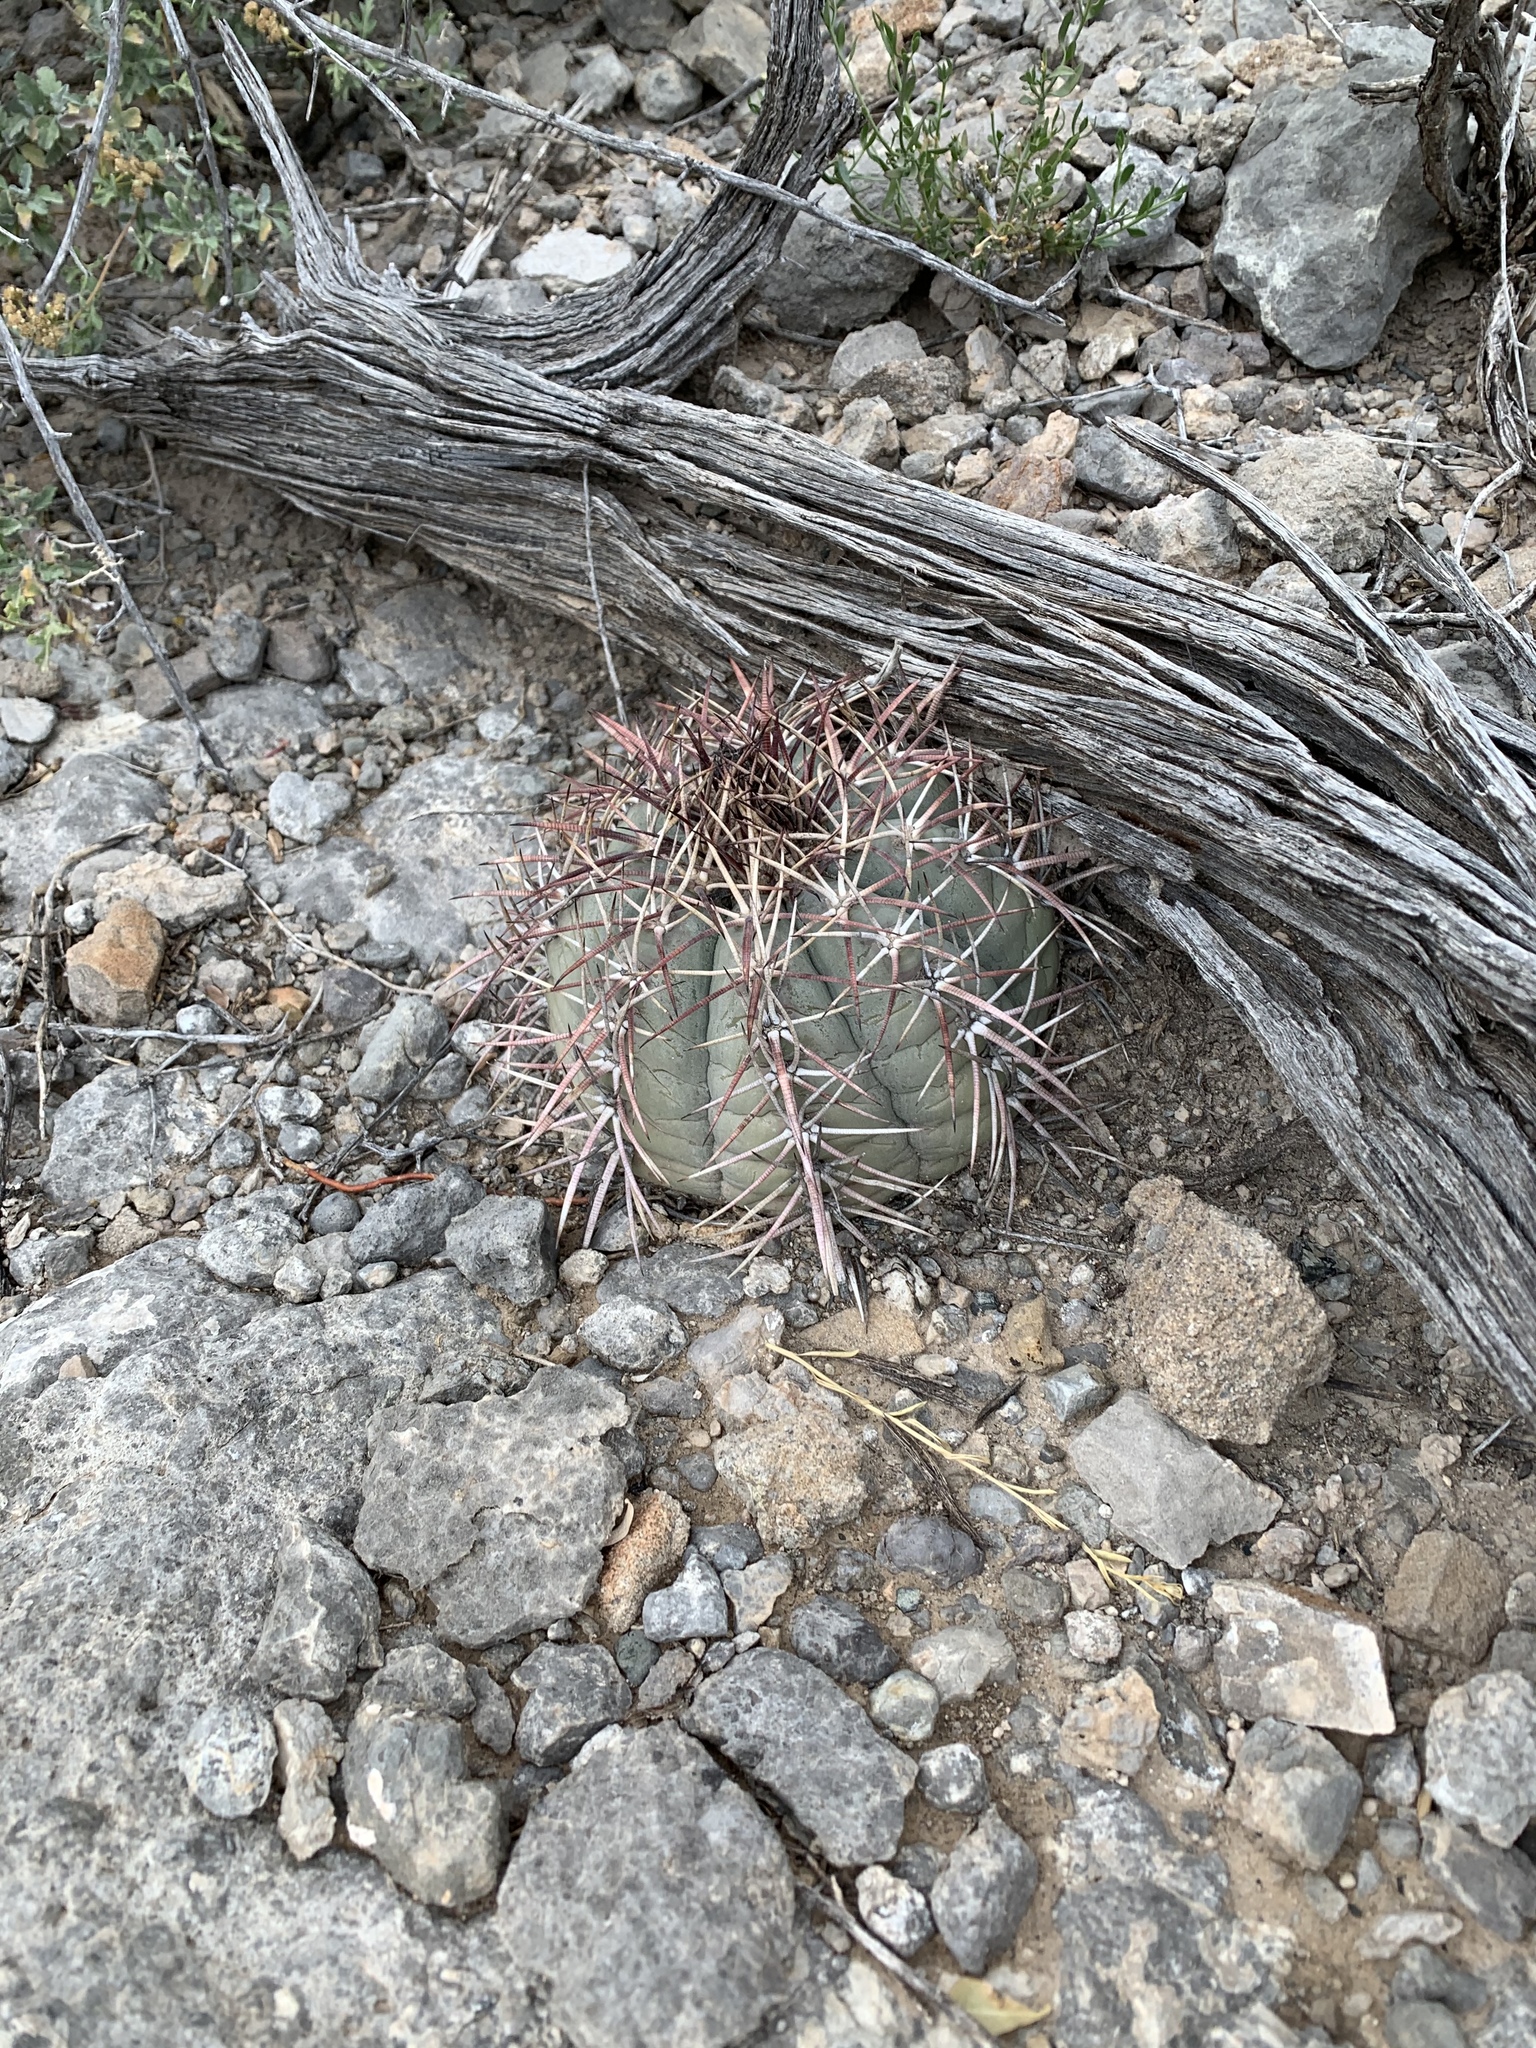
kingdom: Plantae
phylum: Tracheophyta
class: Magnoliopsida
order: Caryophyllales
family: Cactaceae
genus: Echinocactus
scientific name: Echinocactus horizonthalonius
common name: Devilshead
